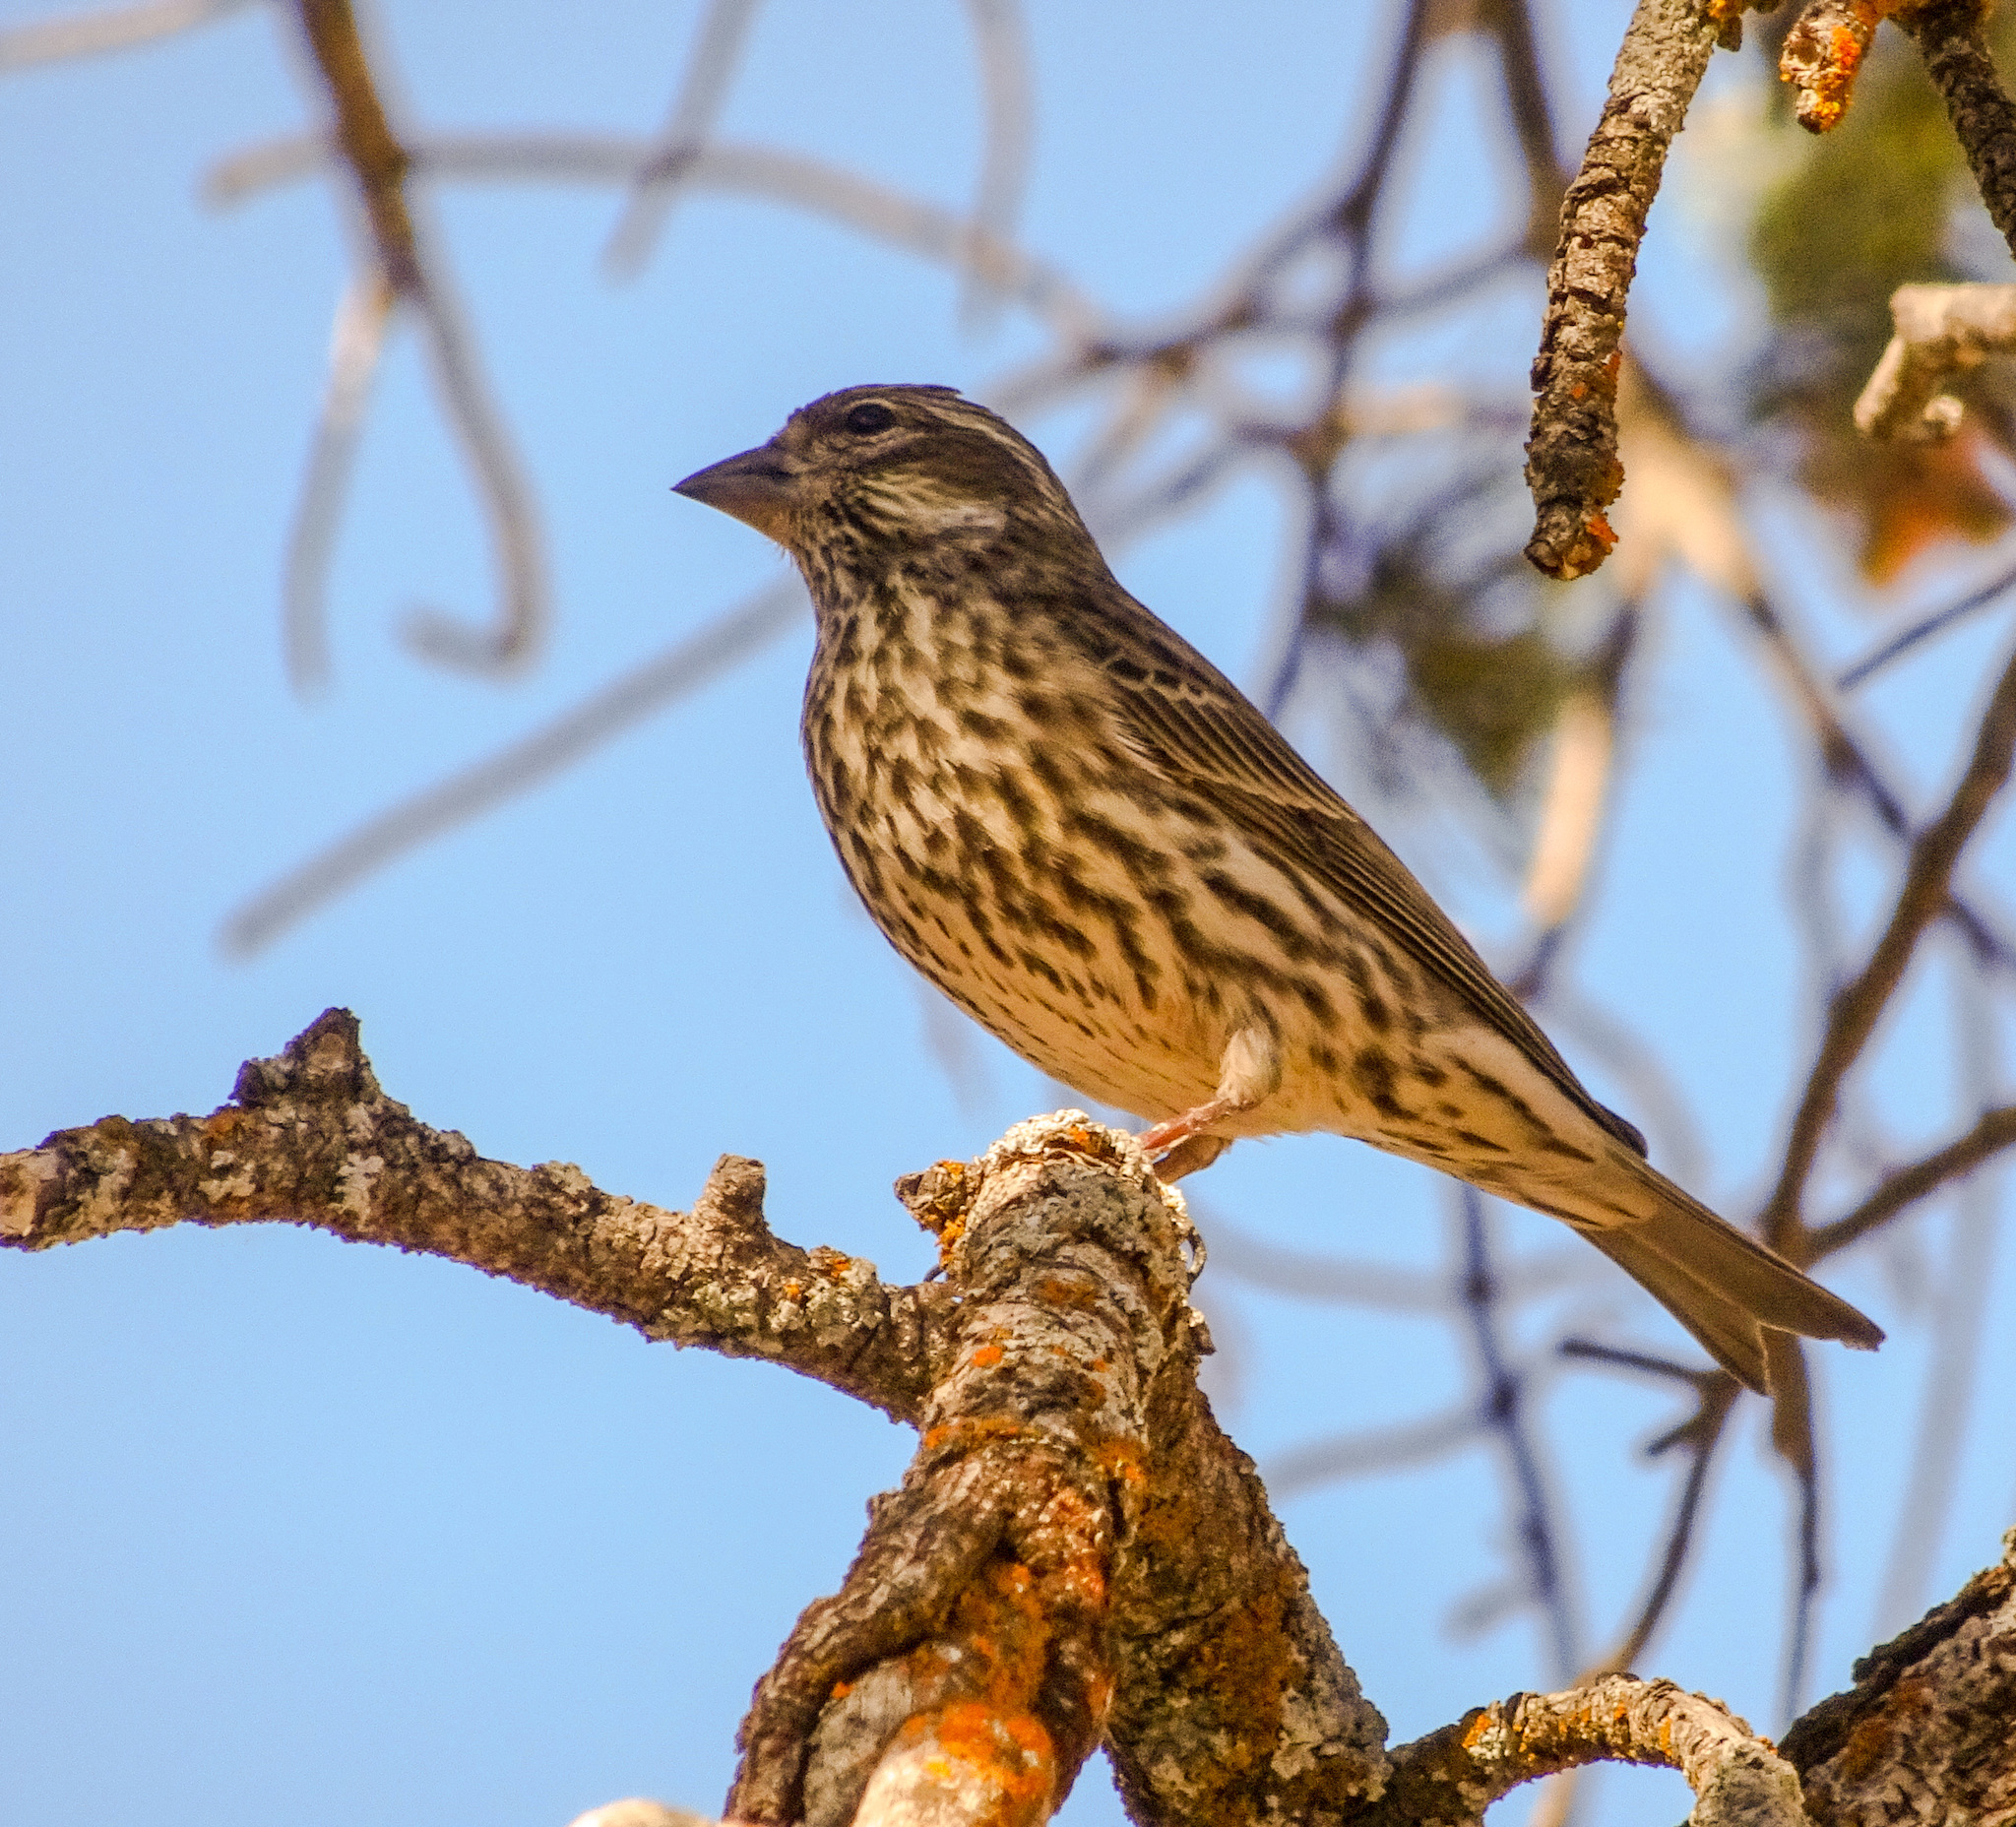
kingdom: Animalia
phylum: Chordata
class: Aves
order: Passeriformes
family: Fringillidae
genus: Haemorhous
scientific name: Haemorhous cassinii
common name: Cassin's finch
